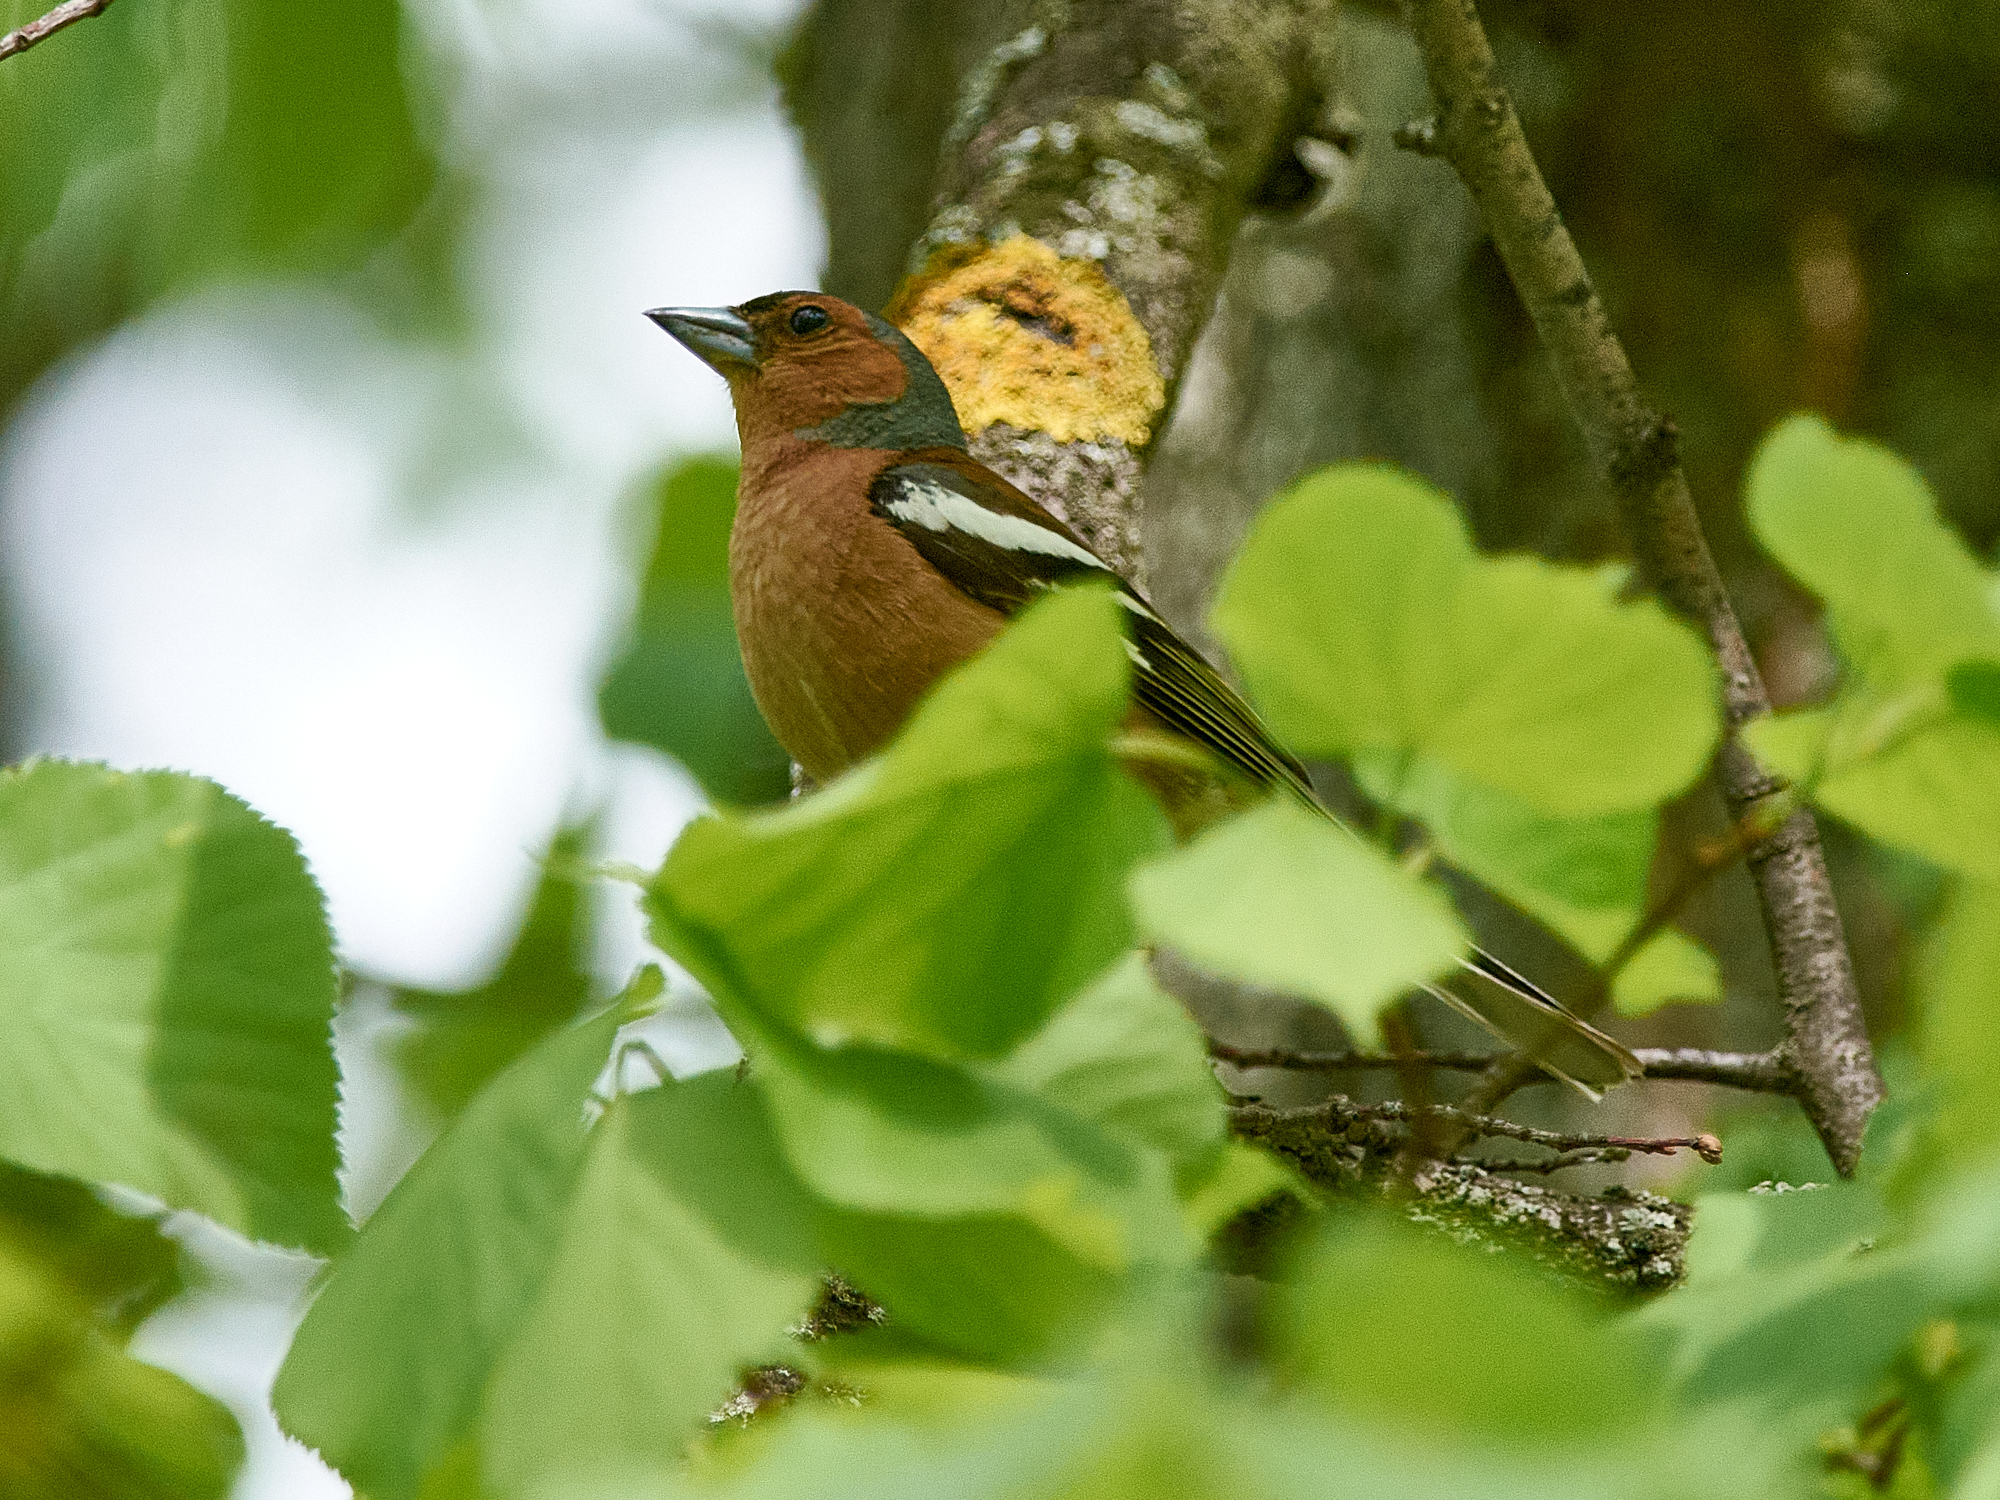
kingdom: Animalia
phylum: Chordata
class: Aves
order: Passeriformes
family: Fringillidae
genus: Fringilla
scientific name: Fringilla coelebs
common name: Common chaffinch
